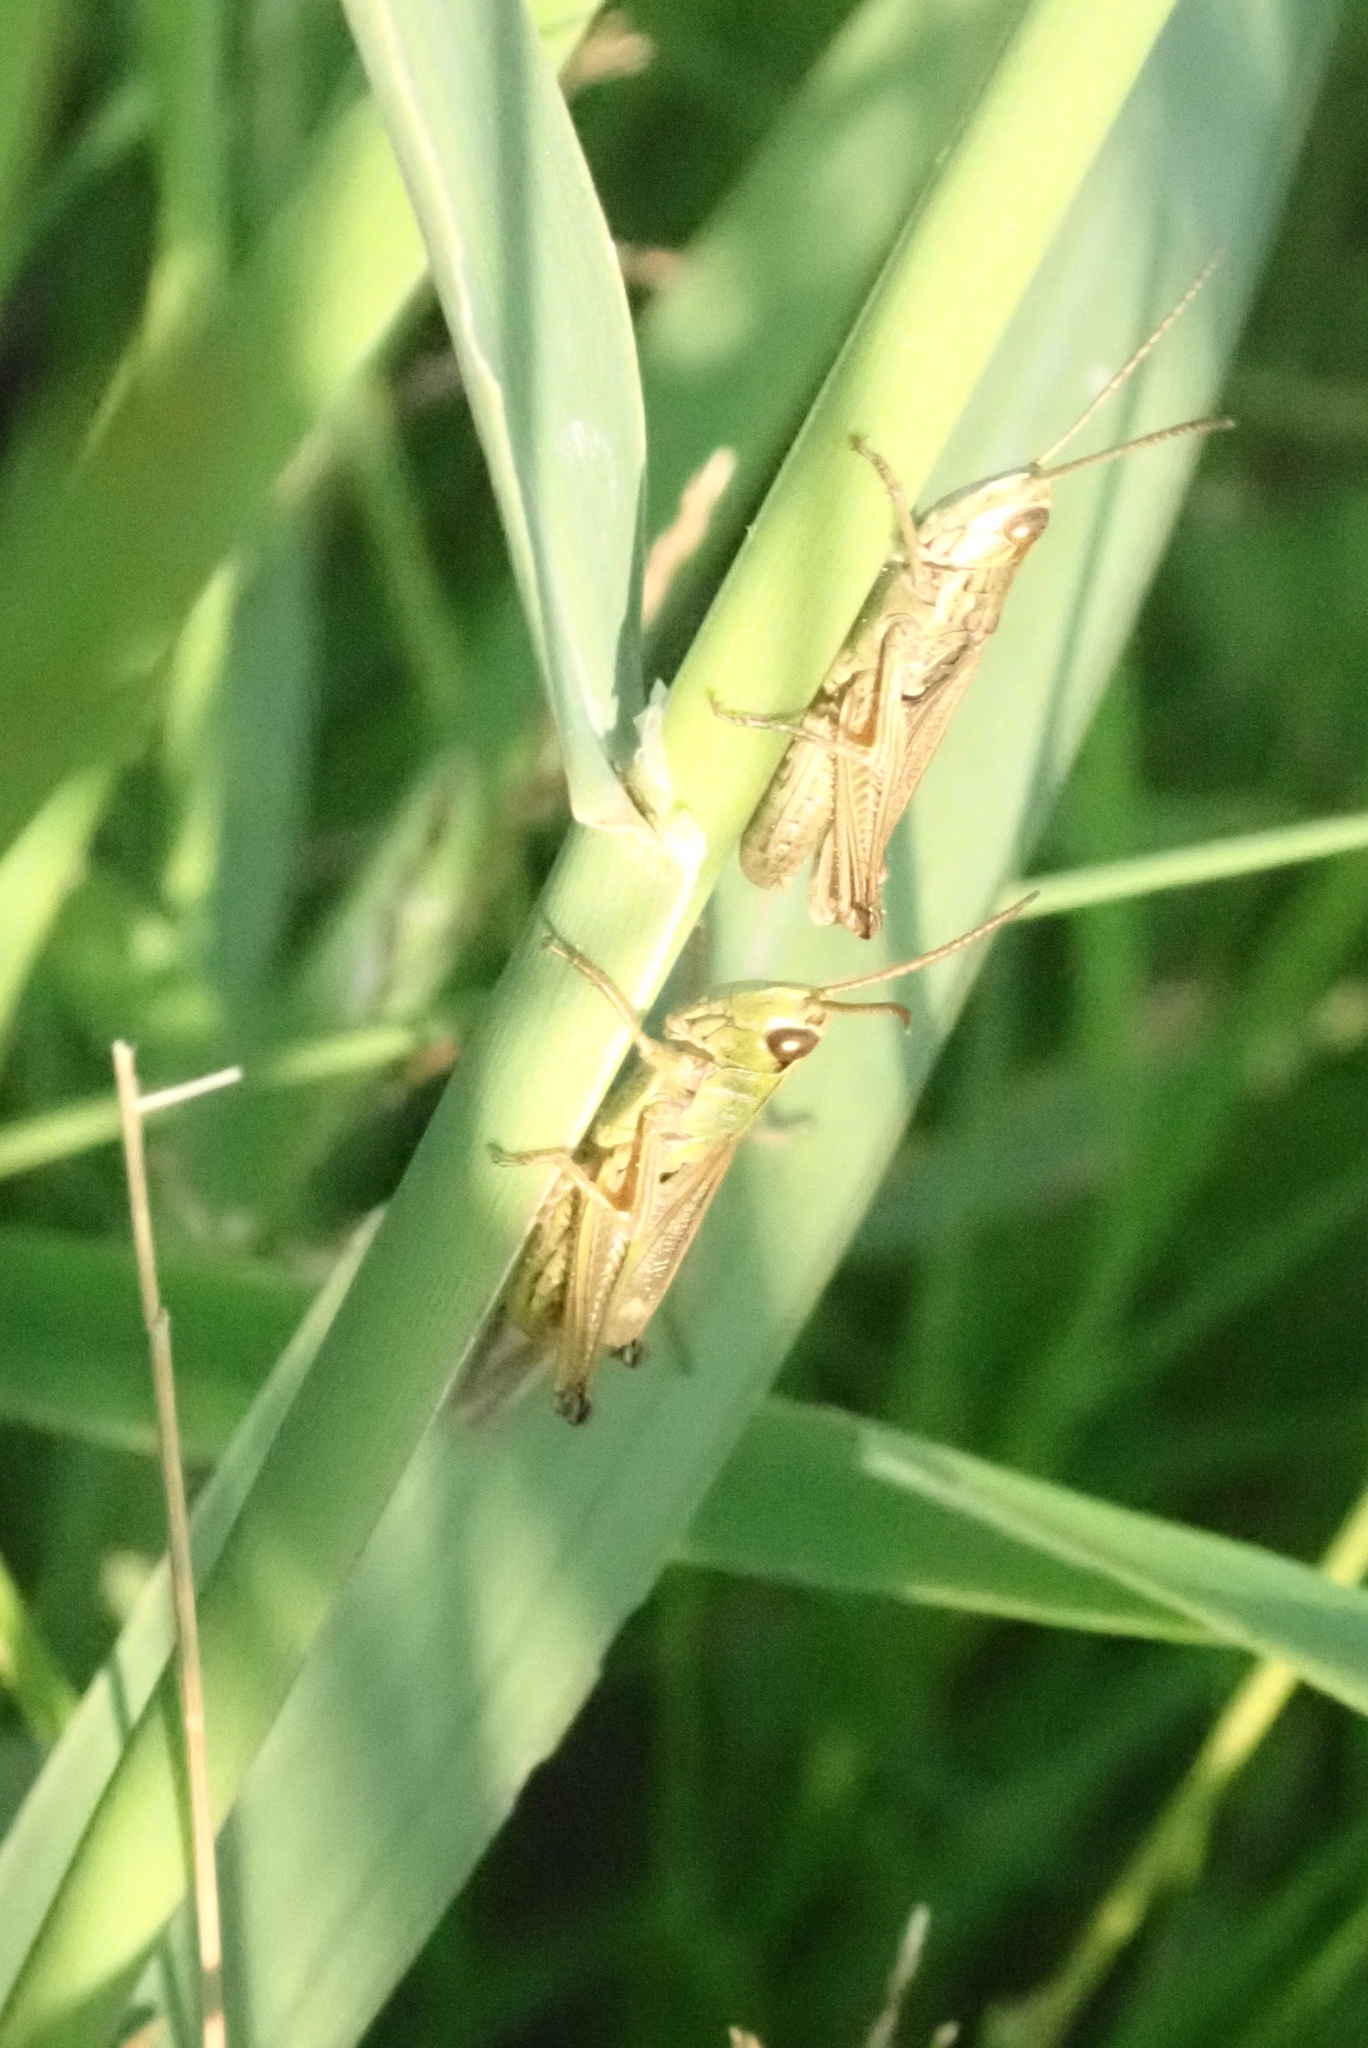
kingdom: Animalia
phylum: Arthropoda
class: Insecta
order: Orthoptera
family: Acrididae
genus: Pseudochorthippus
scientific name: Pseudochorthippus parallelus
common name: Meadow grasshopper
